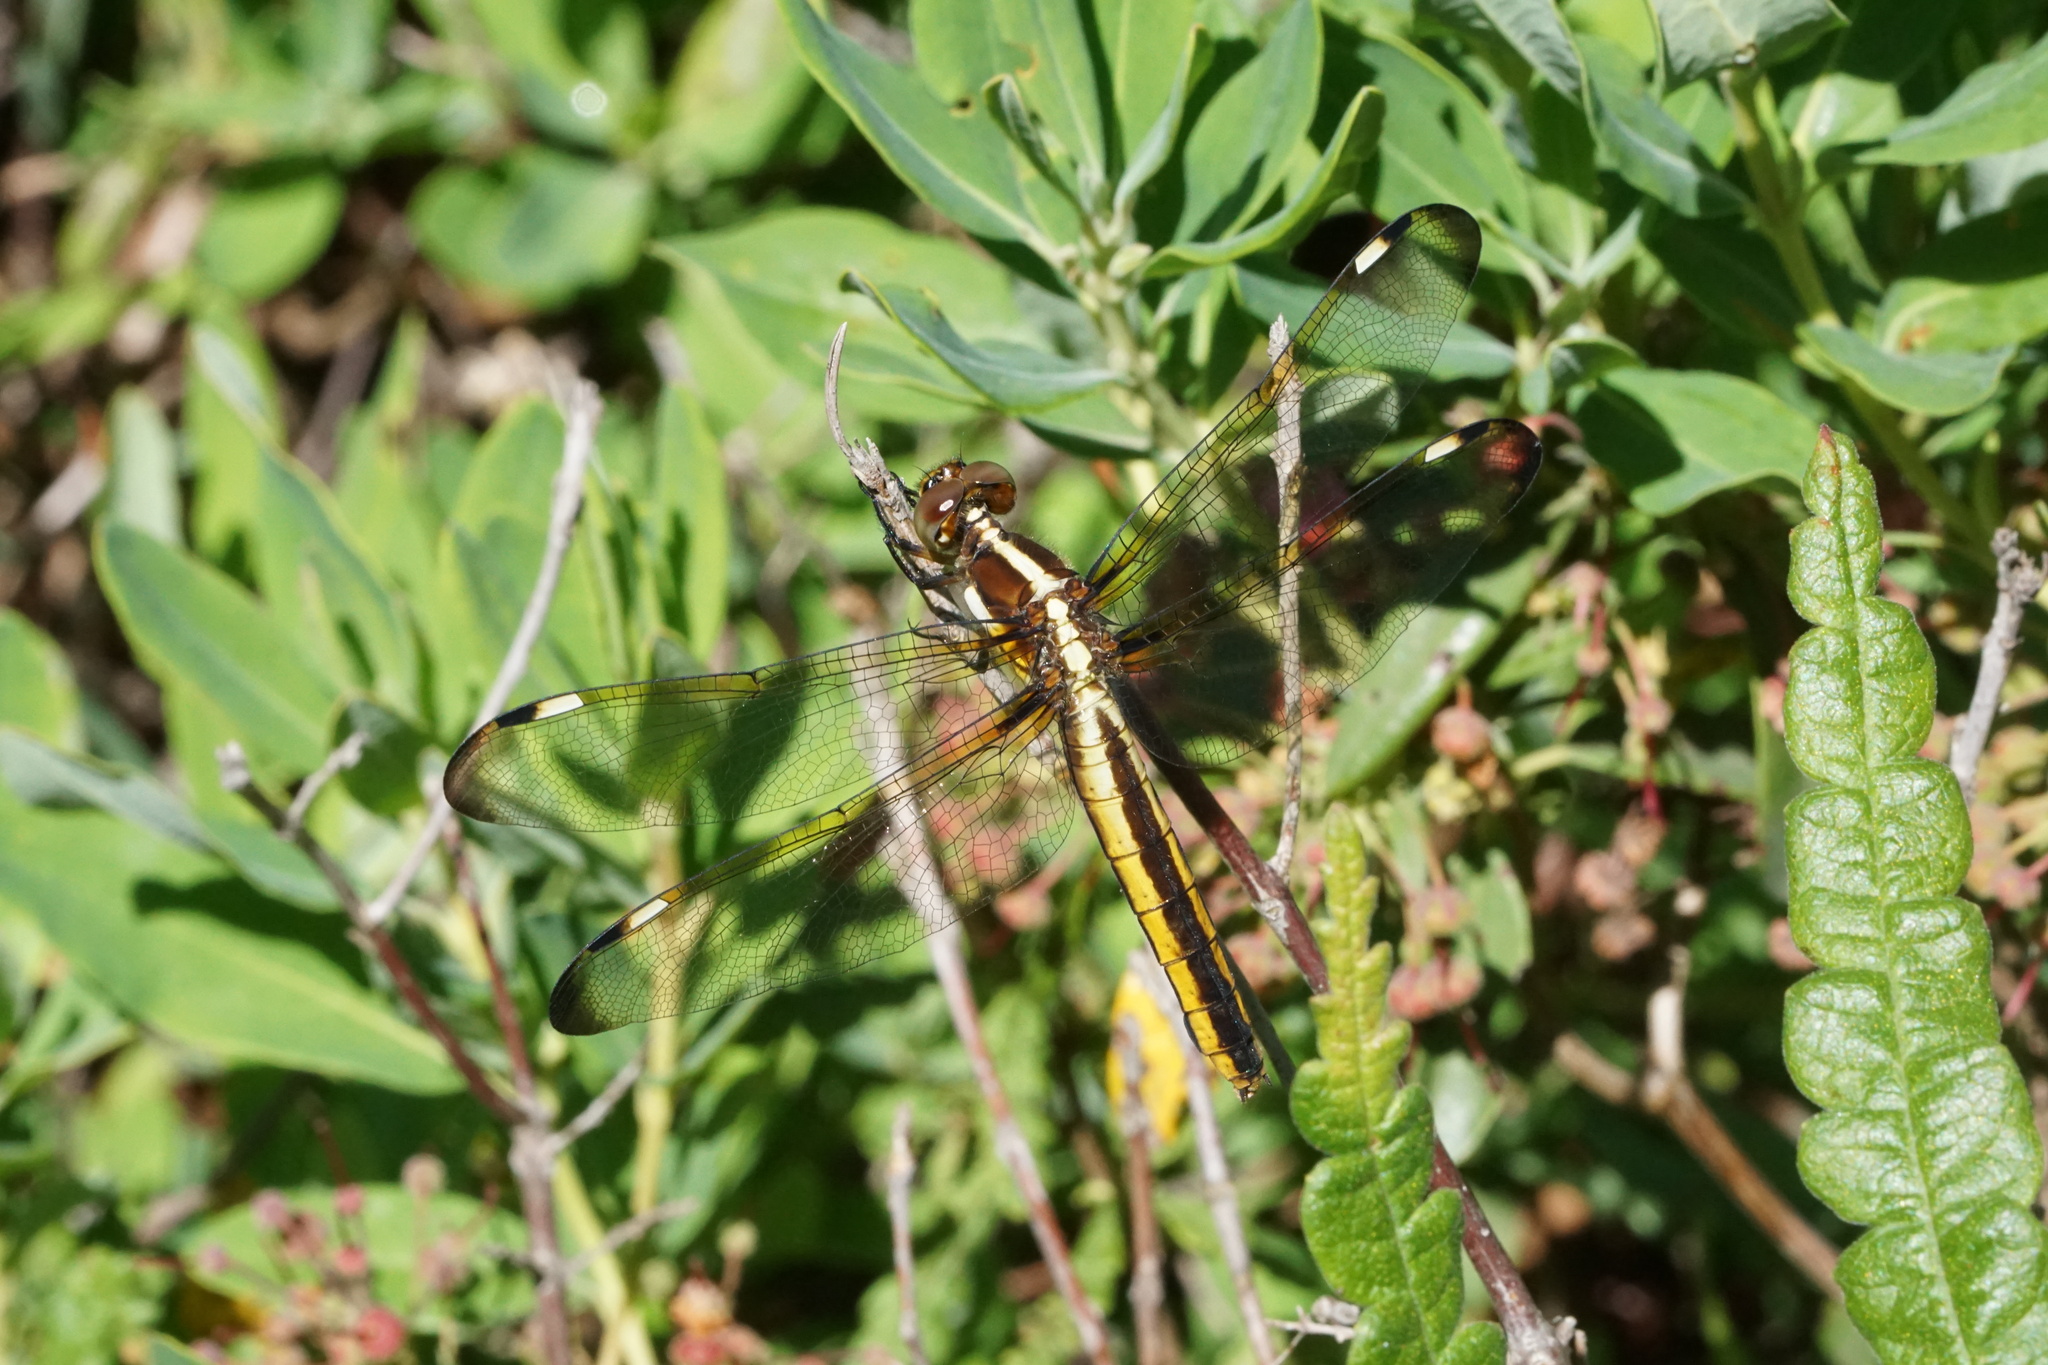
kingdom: Animalia
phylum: Arthropoda
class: Insecta
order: Odonata
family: Libellulidae
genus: Libellula
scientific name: Libellula cyanea
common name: Spangled skimmer
